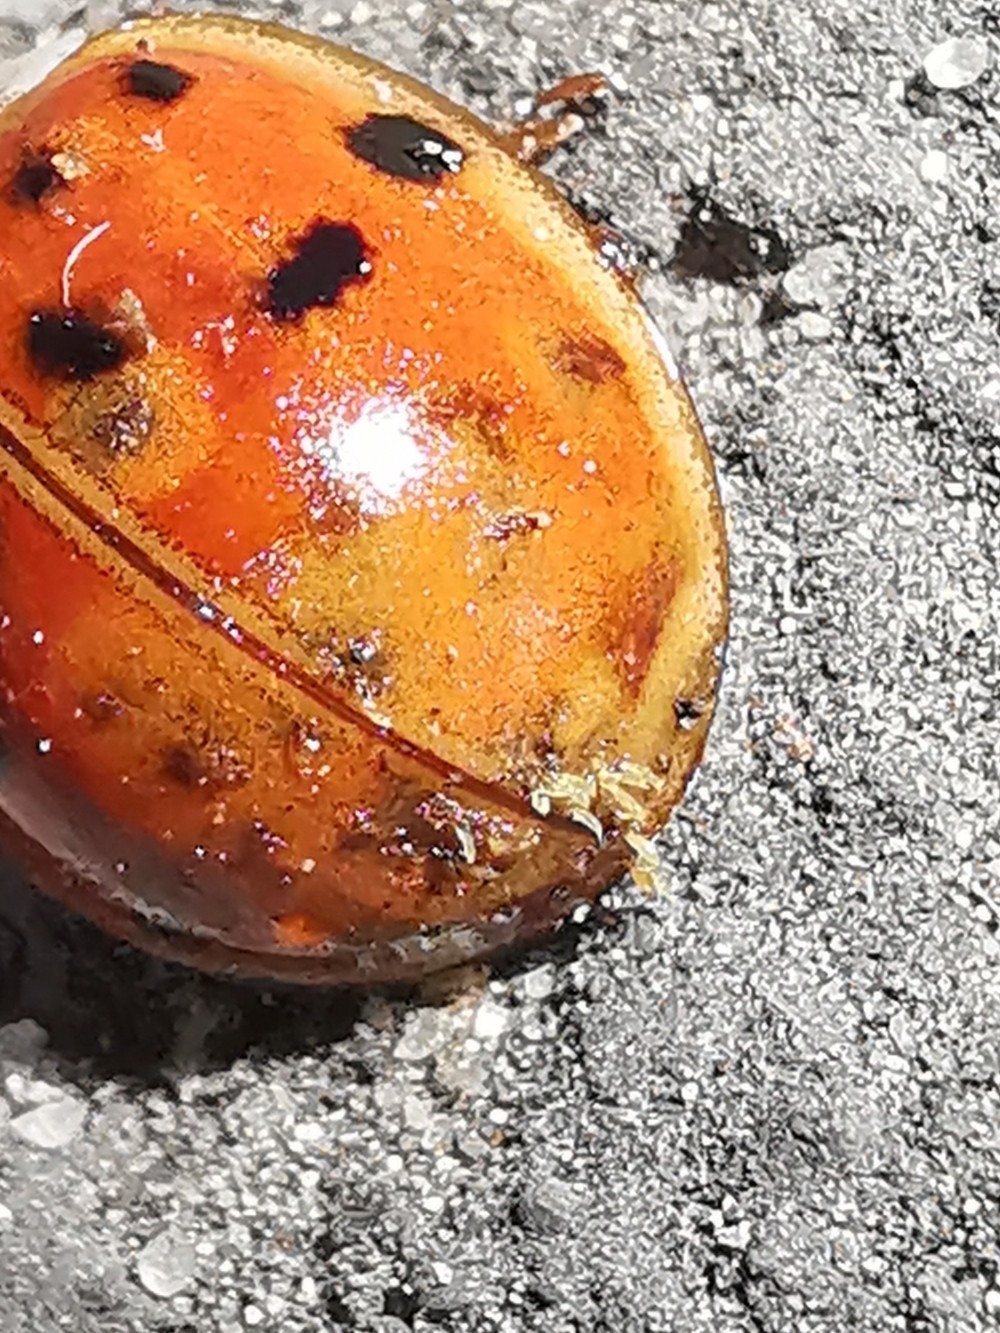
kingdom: Fungi
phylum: Ascomycota
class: Laboulbeniomycetes
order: Laboulbeniales
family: Laboulbeniaceae
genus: Hesperomyces
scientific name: Hesperomyces harmoniae
